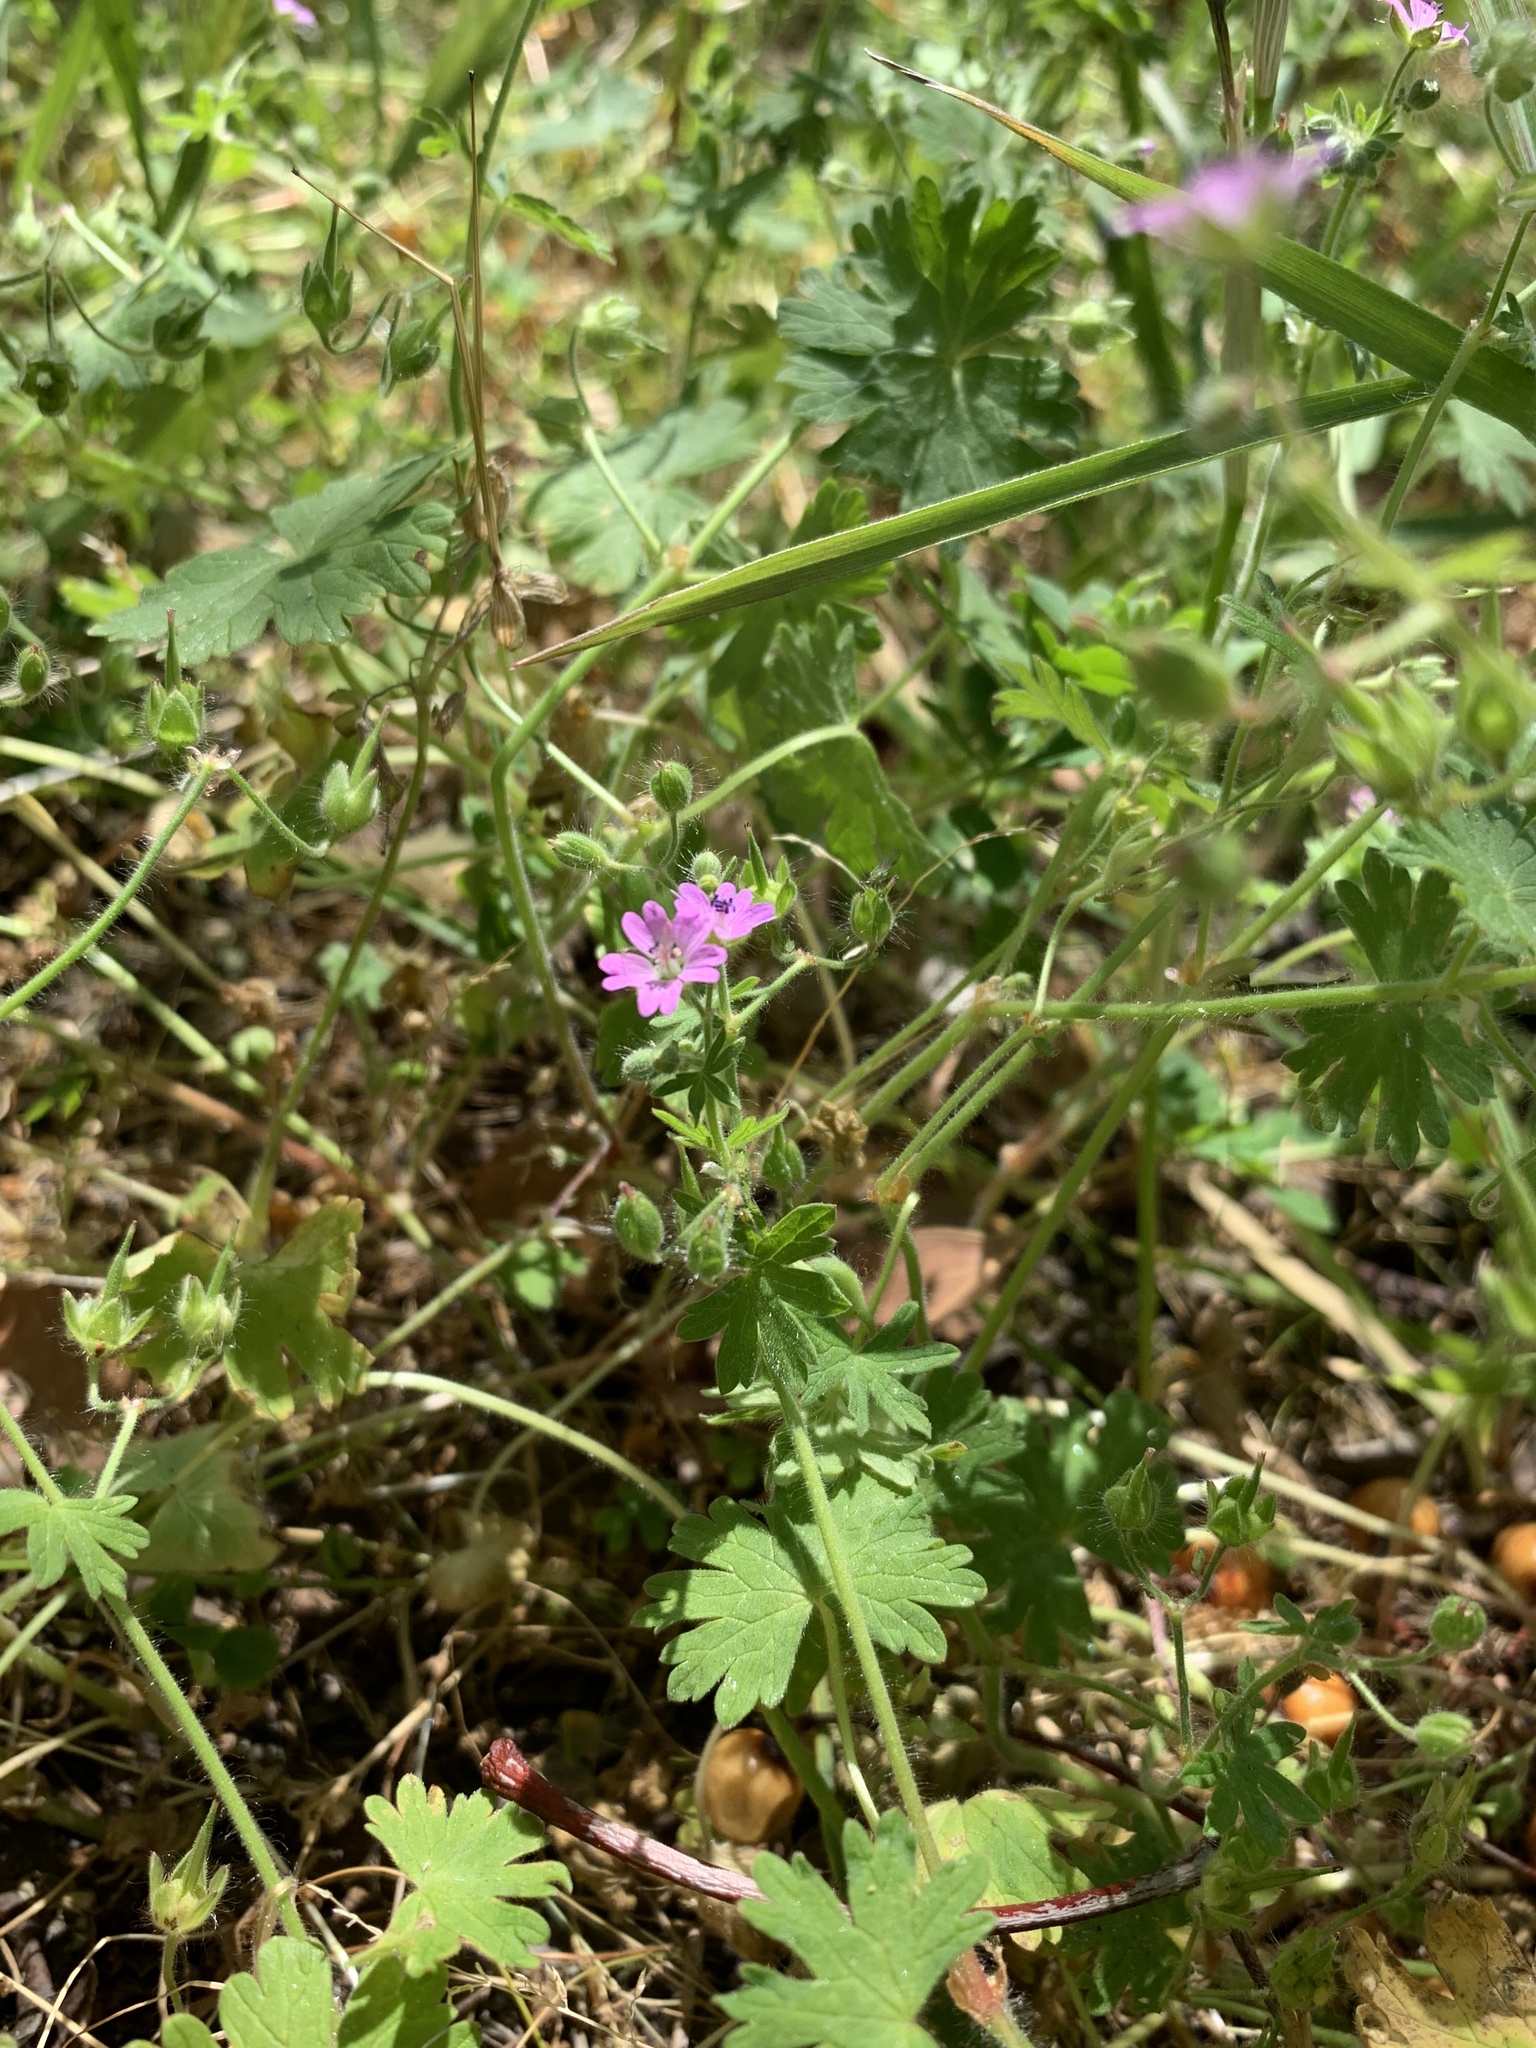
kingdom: Plantae
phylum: Tracheophyta
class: Magnoliopsida
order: Geraniales
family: Geraniaceae
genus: Geranium
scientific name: Geranium molle
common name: Dove's-foot crane's-bill
